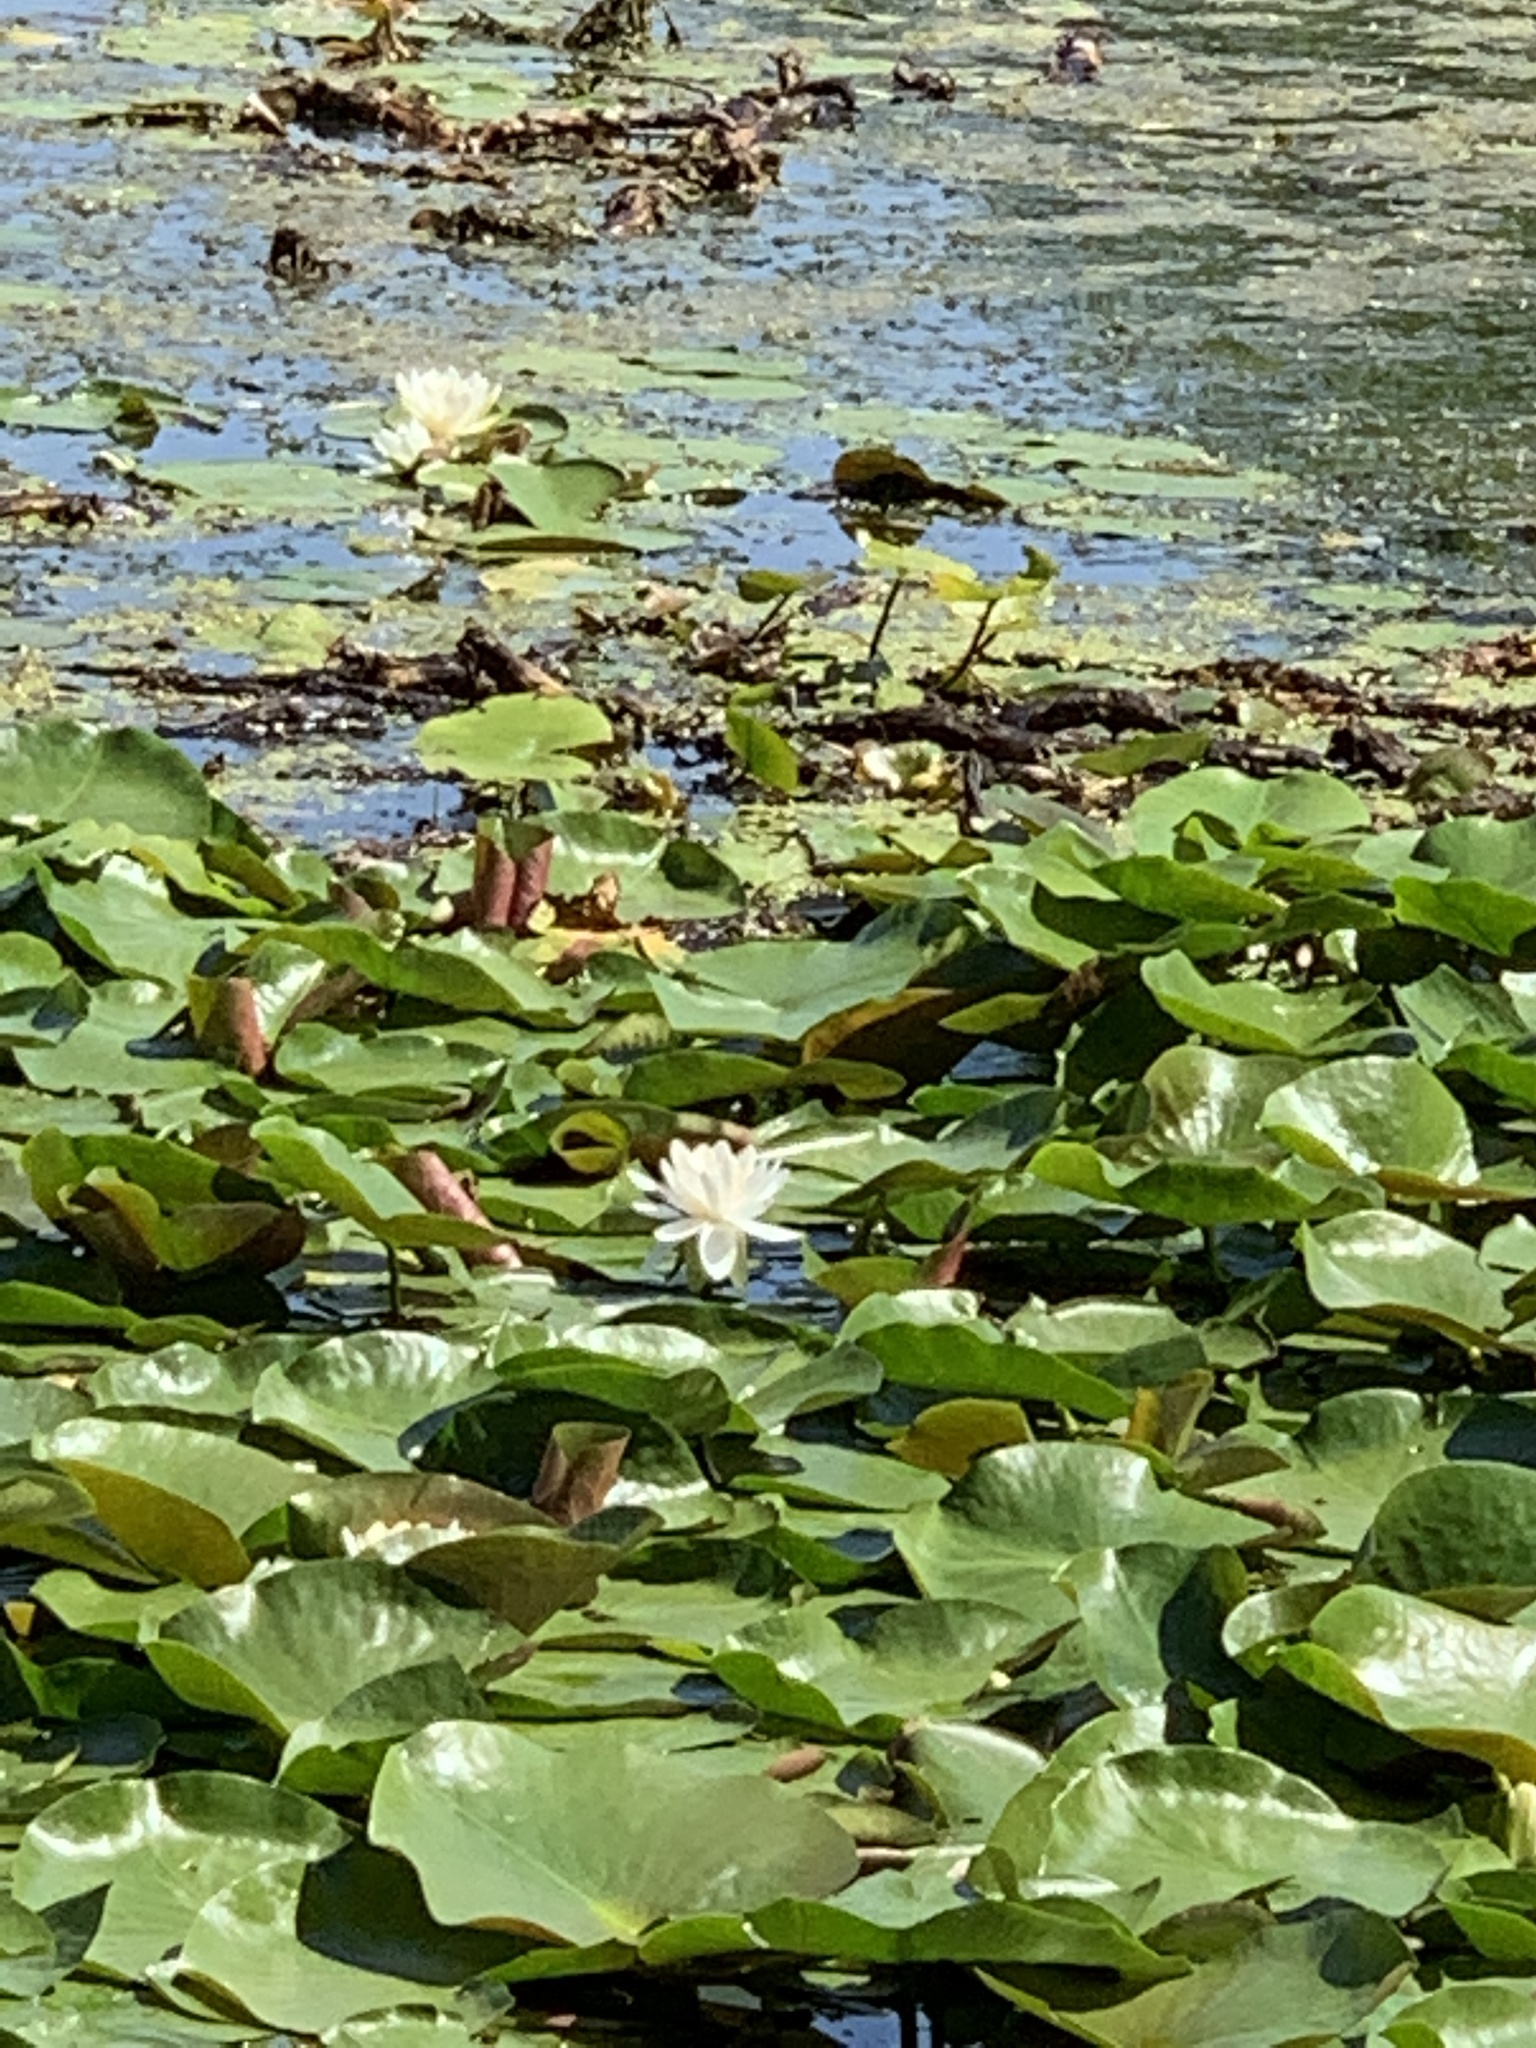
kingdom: Plantae
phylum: Tracheophyta
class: Magnoliopsida
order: Nymphaeales
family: Nymphaeaceae
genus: Nymphaea
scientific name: Nymphaea odorata
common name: Fragrant water-lily
